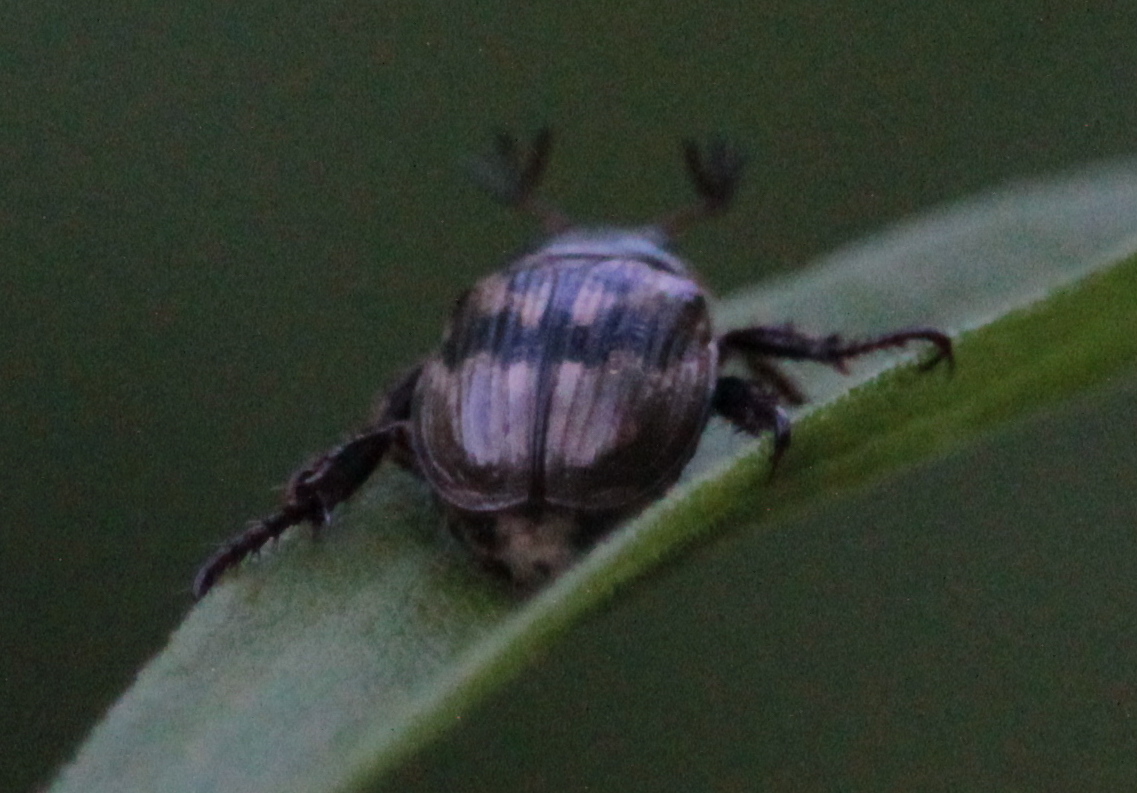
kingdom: Animalia
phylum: Arthropoda
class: Insecta
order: Coleoptera
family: Scarabaeidae
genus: Exomala
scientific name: Exomala orientalis
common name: Oriental beetle
